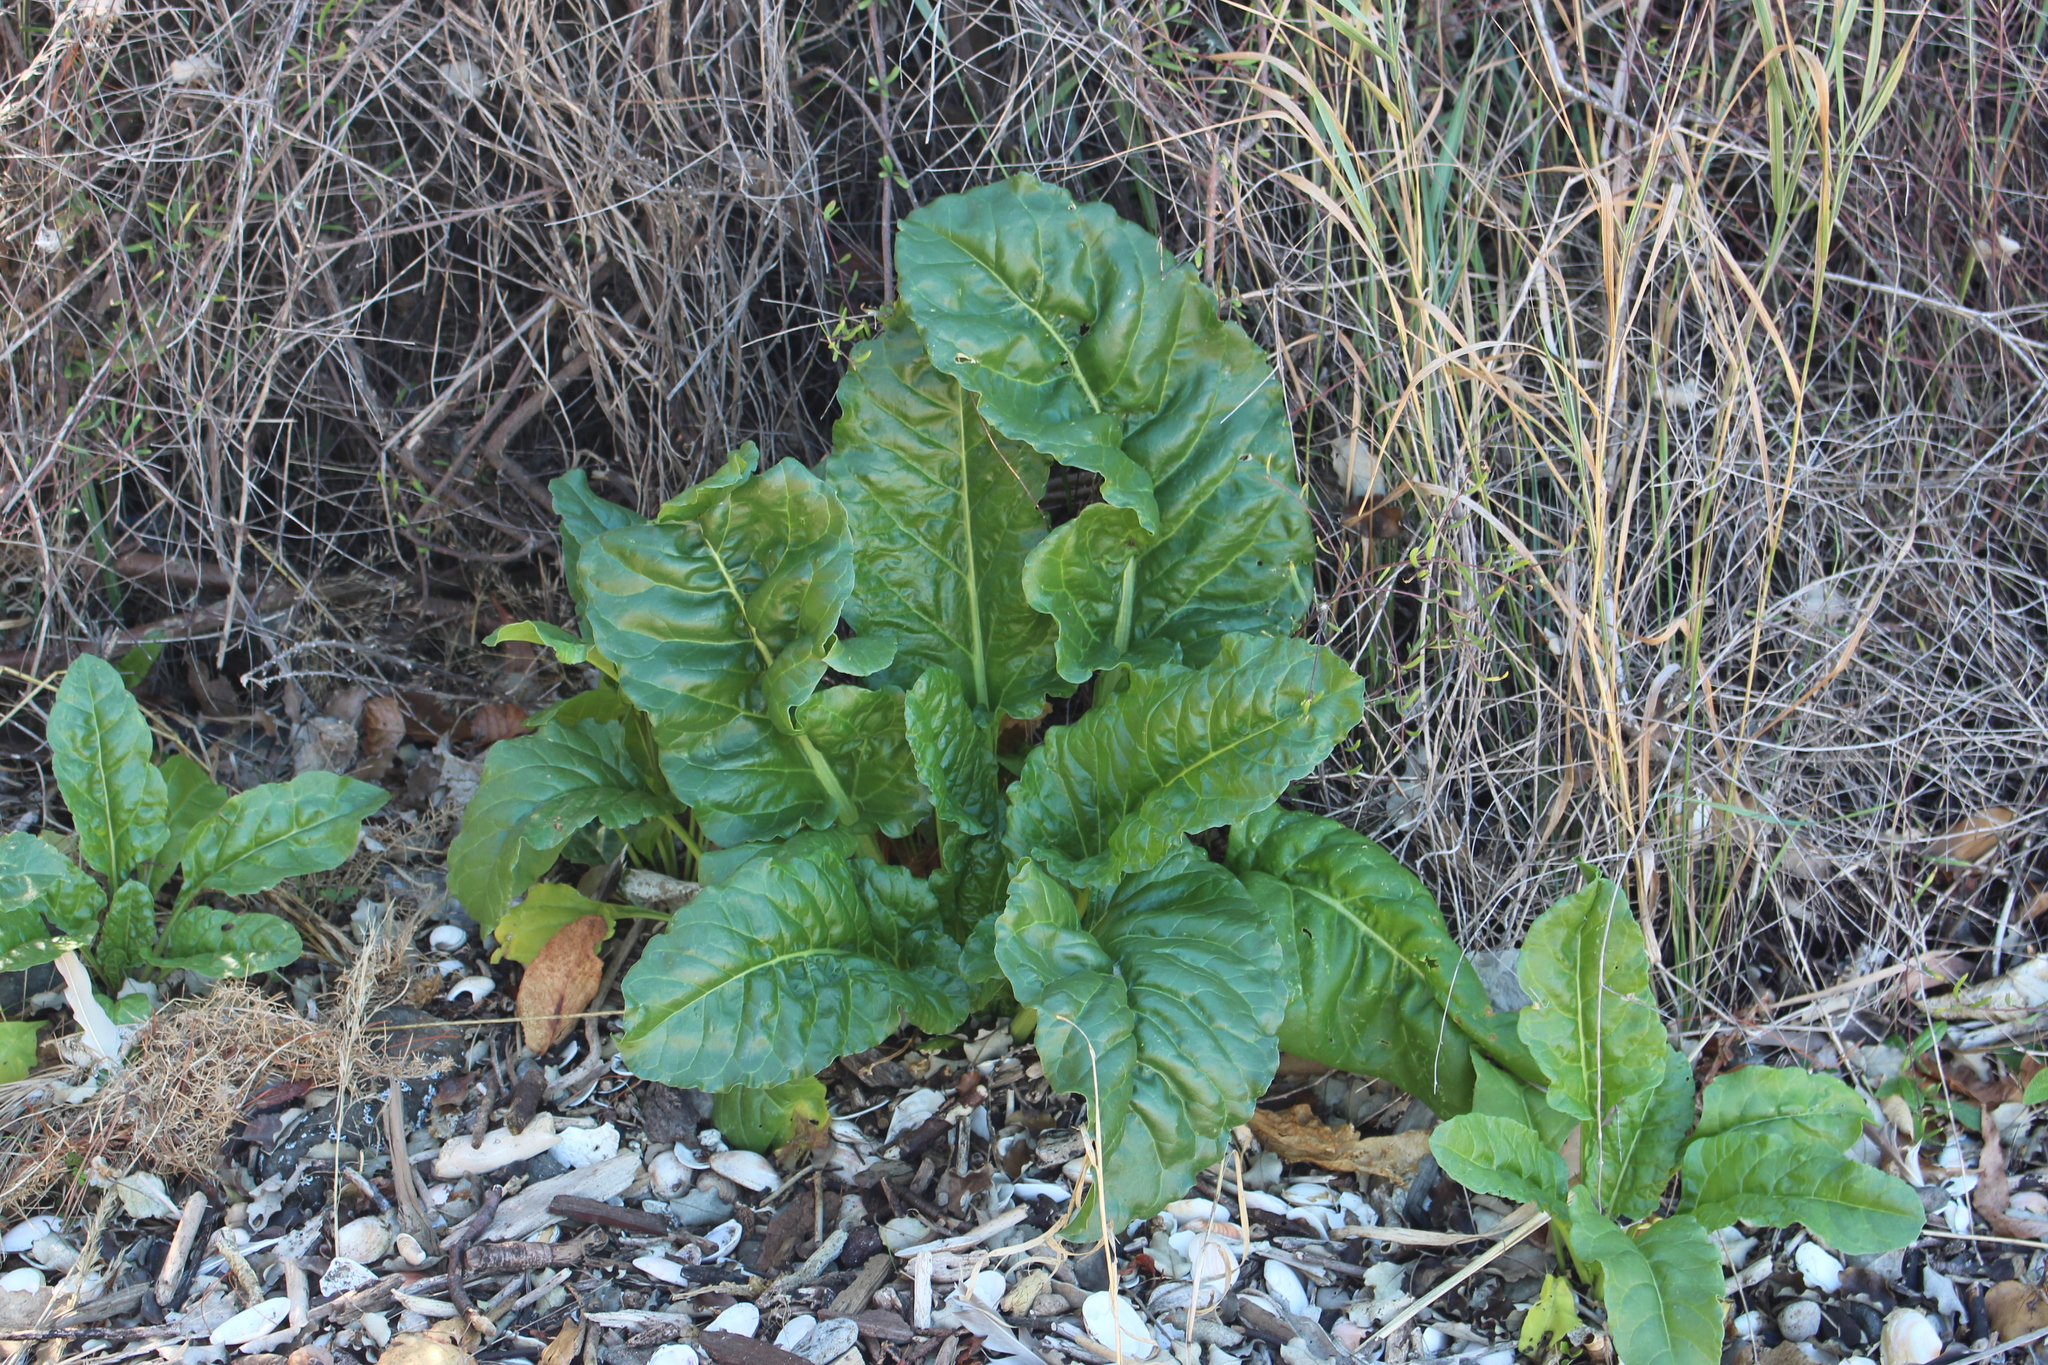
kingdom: Plantae
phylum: Tracheophyta
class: Magnoliopsida
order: Caryophyllales
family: Amaranthaceae
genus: Beta
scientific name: Beta vulgaris
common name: Beet
